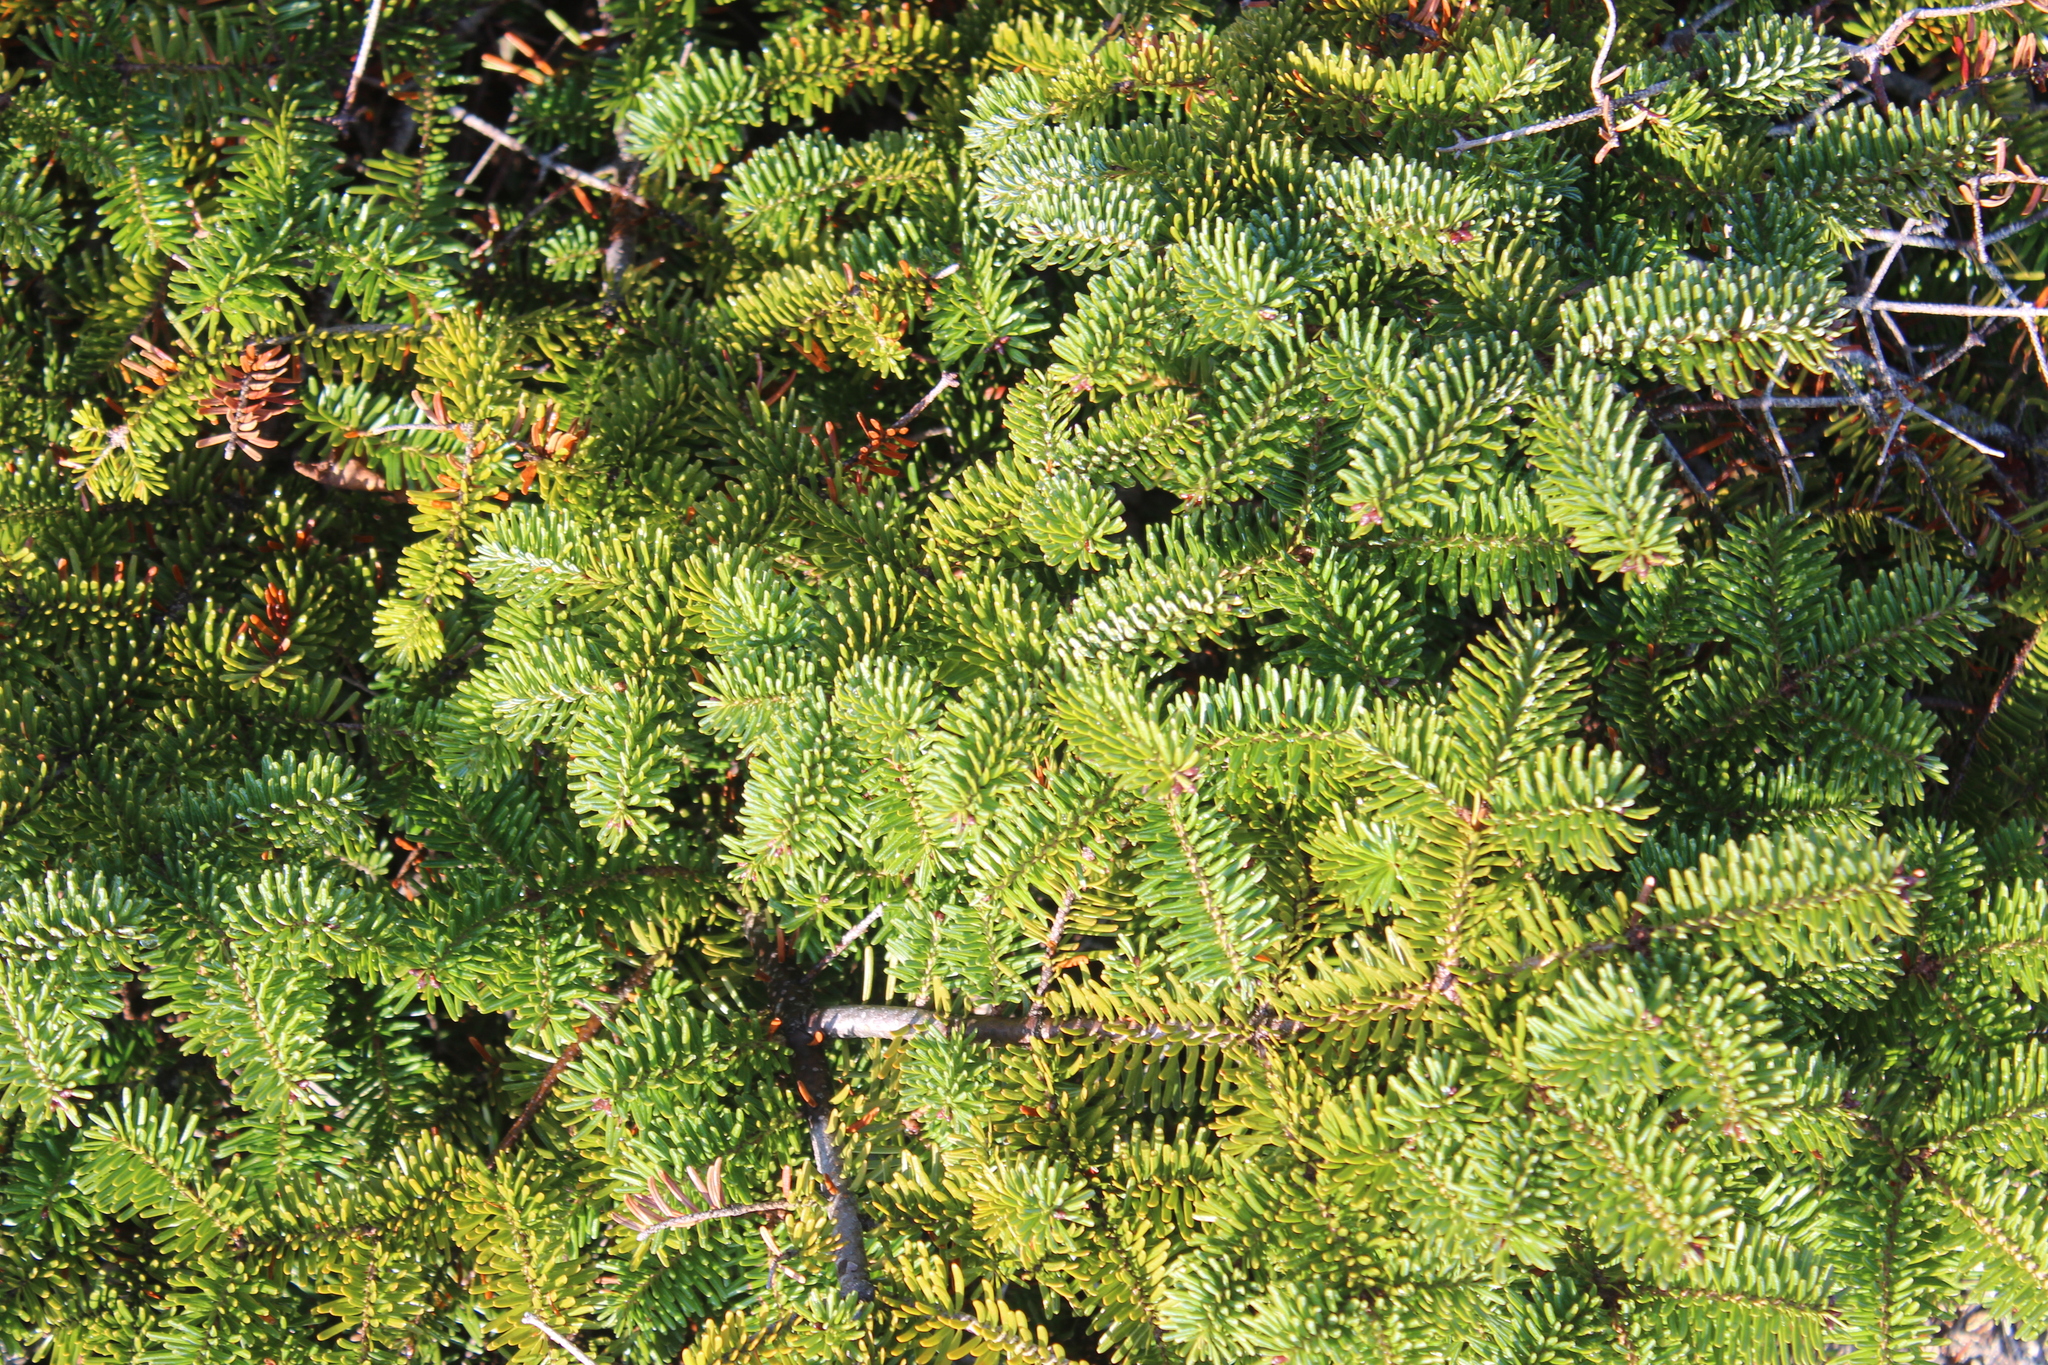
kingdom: Plantae
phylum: Tracheophyta
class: Pinopsida
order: Pinales
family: Pinaceae
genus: Abies
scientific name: Abies balsamea
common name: Balsam fir
